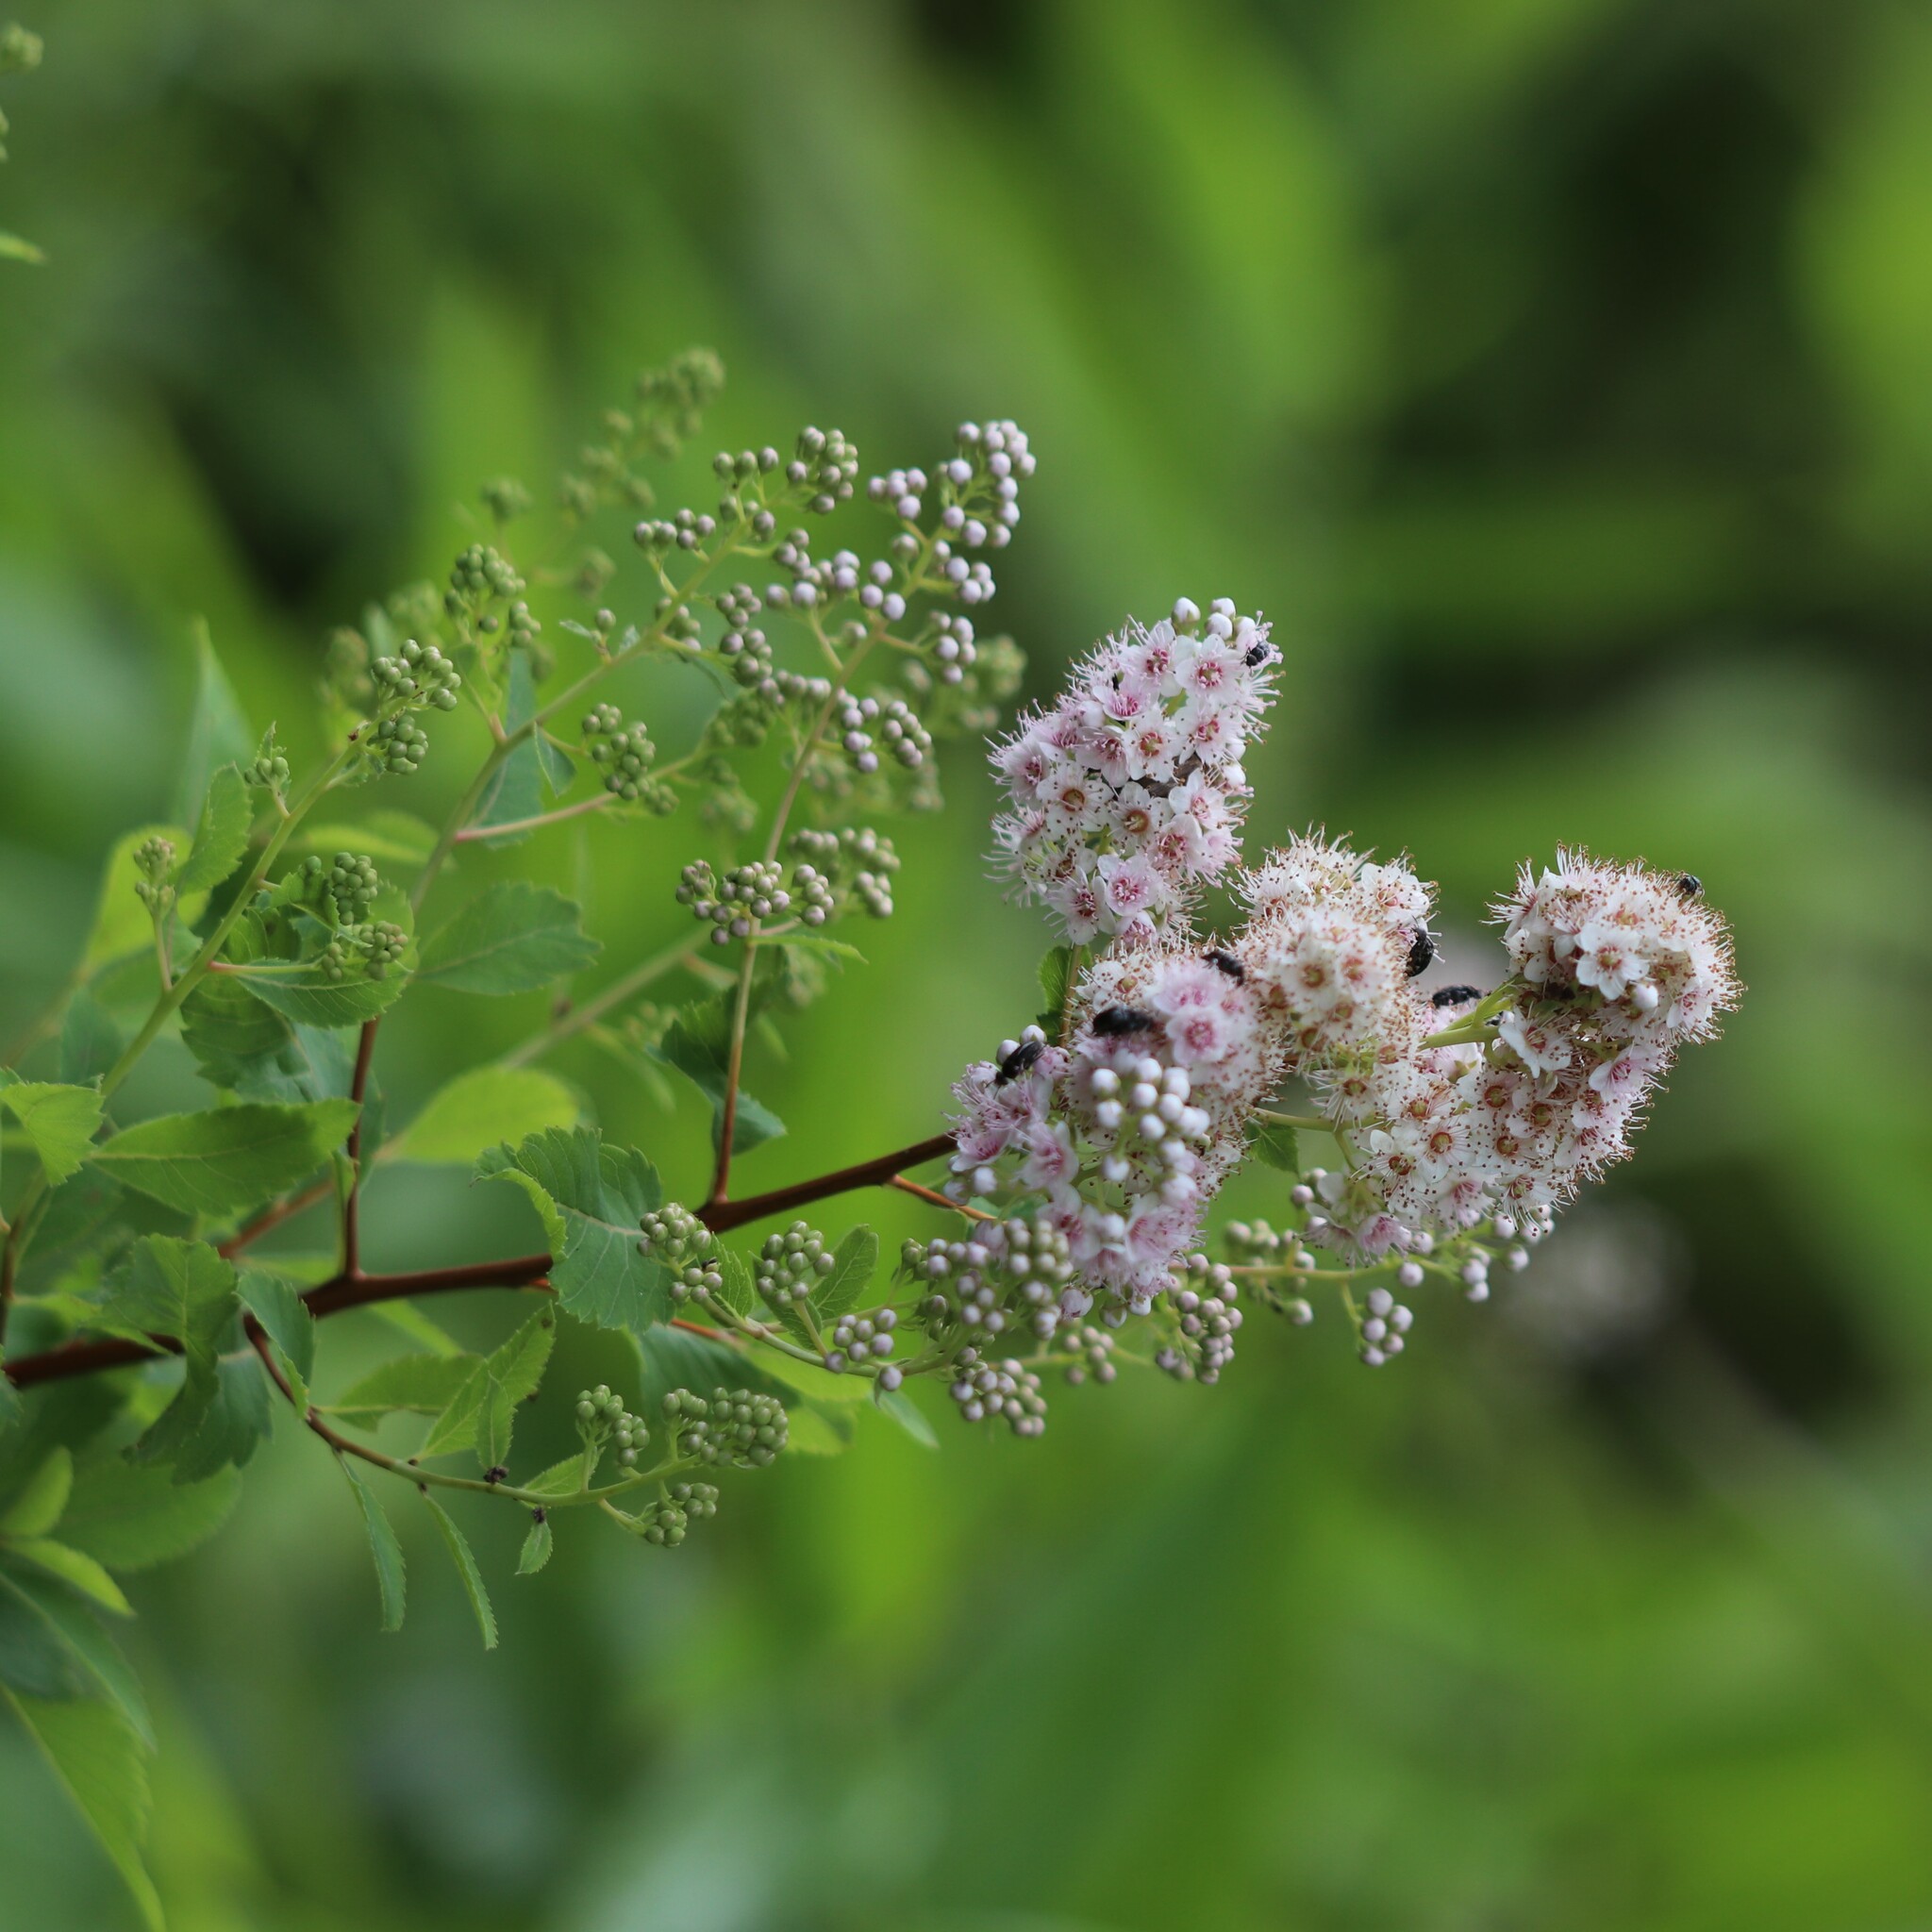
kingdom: Plantae
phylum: Tracheophyta
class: Magnoliopsida
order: Rosales
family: Rosaceae
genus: Spiraea
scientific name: Spiraea alba
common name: Pale bridewort
